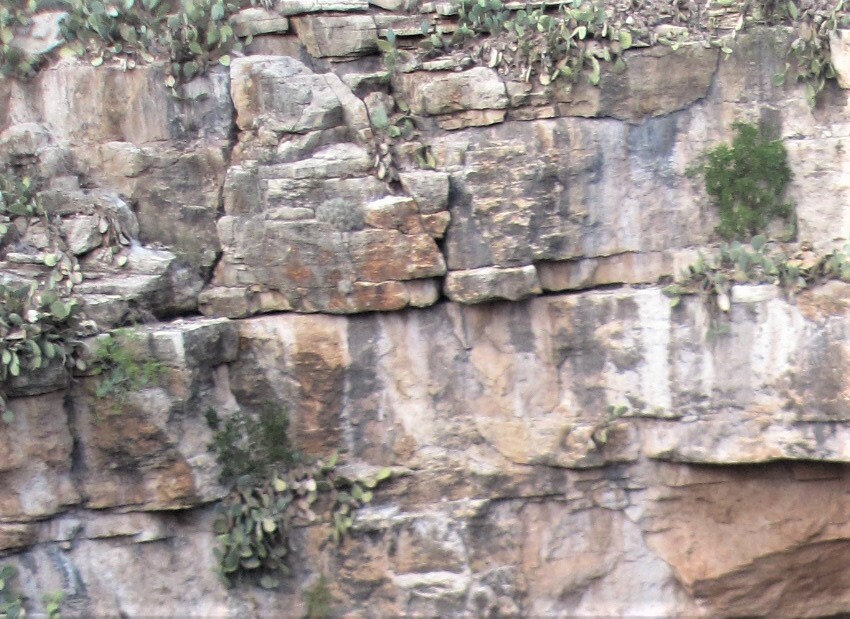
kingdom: Plantae
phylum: Tracheophyta
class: Magnoliopsida
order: Caryophyllales
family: Cactaceae
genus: Opuntia
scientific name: Opuntia
